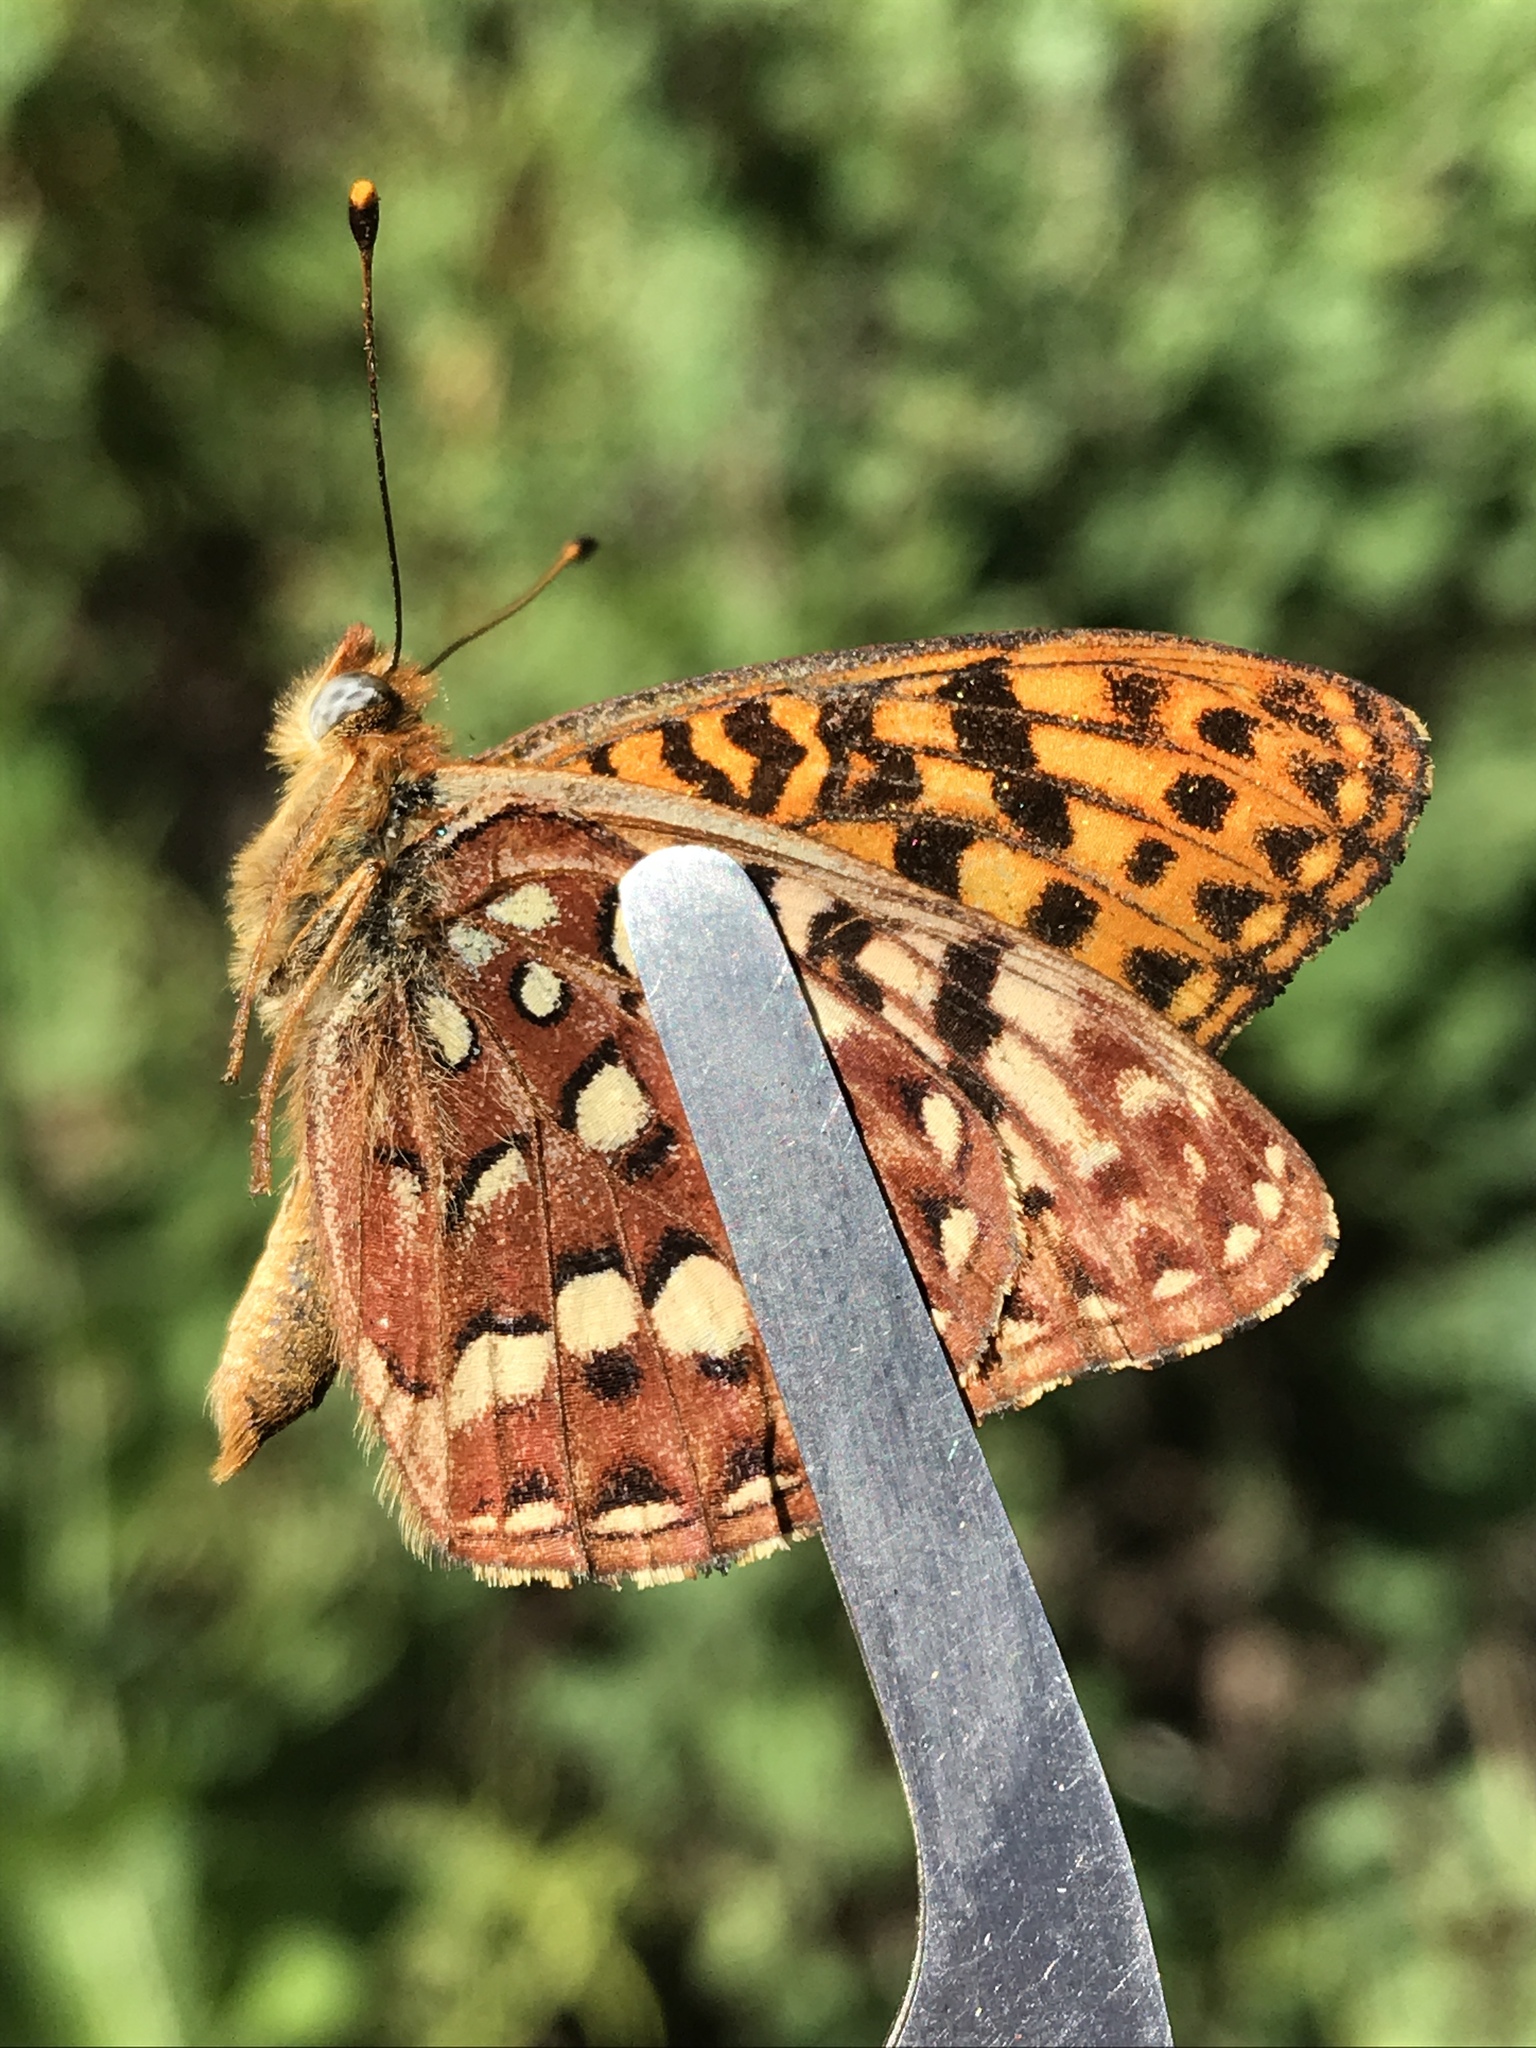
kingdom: Animalia
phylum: Arthropoda
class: Insecta
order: Lepidoptera
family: Nymphalidae
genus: Speyeria
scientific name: Speyeria hydaspe
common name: Hydaspe fritillary
